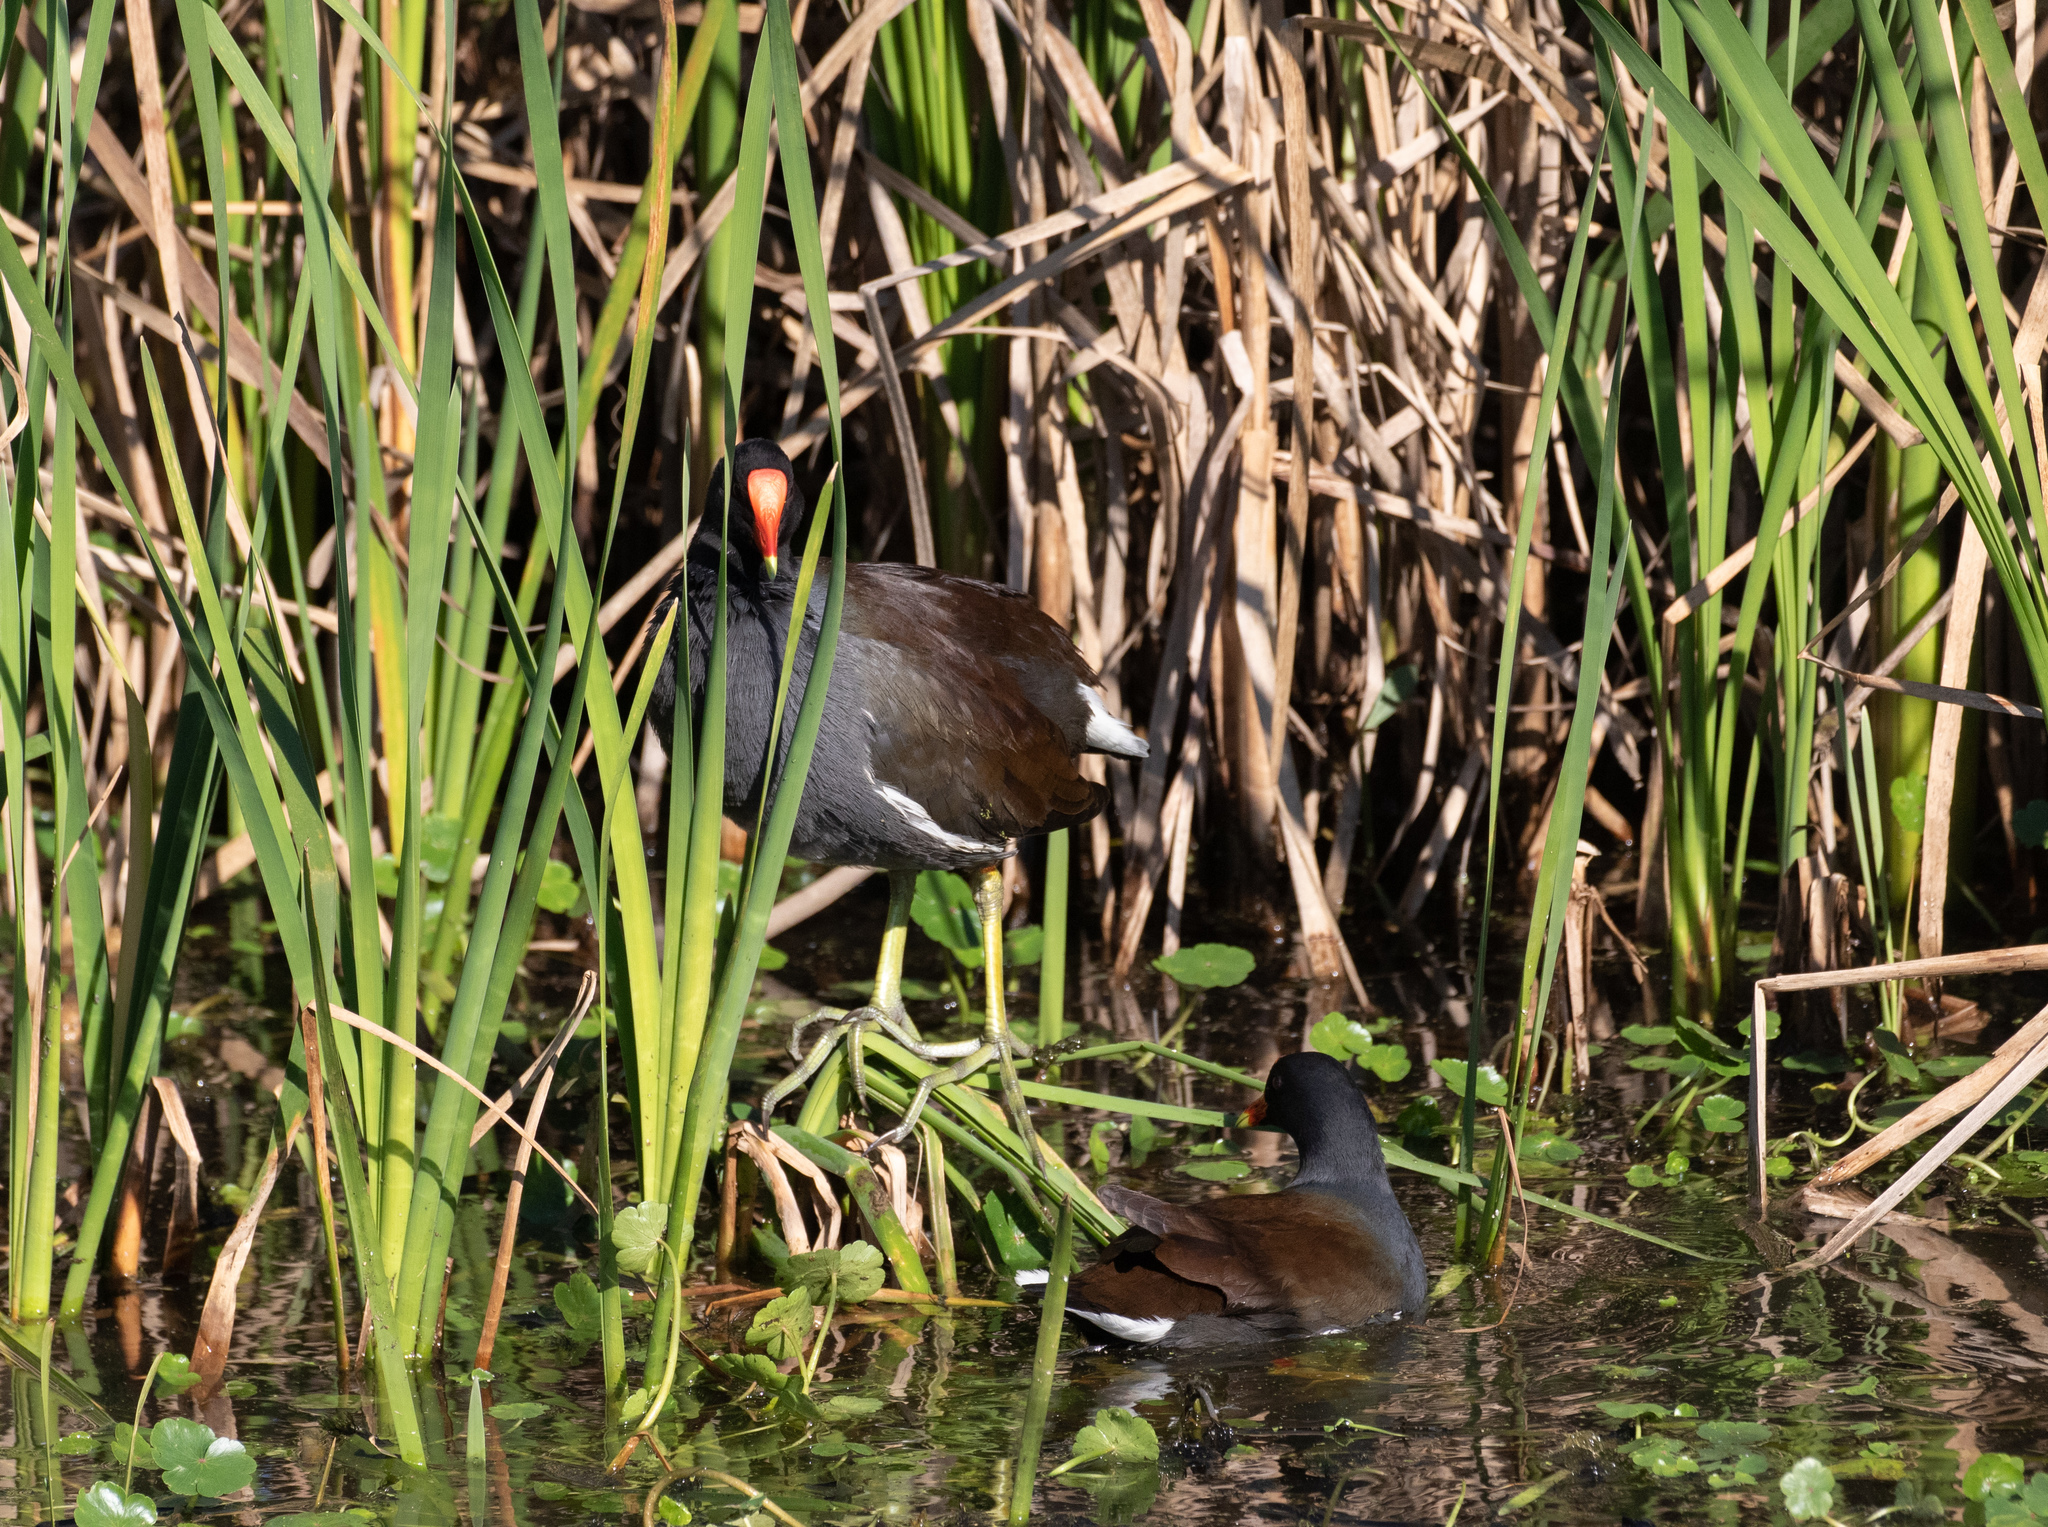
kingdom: Animalia
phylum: Chordata
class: Aves
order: Gruiformes
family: Rallidae
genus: Gallinula
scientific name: Gallinula chloropus
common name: Common moorhen
